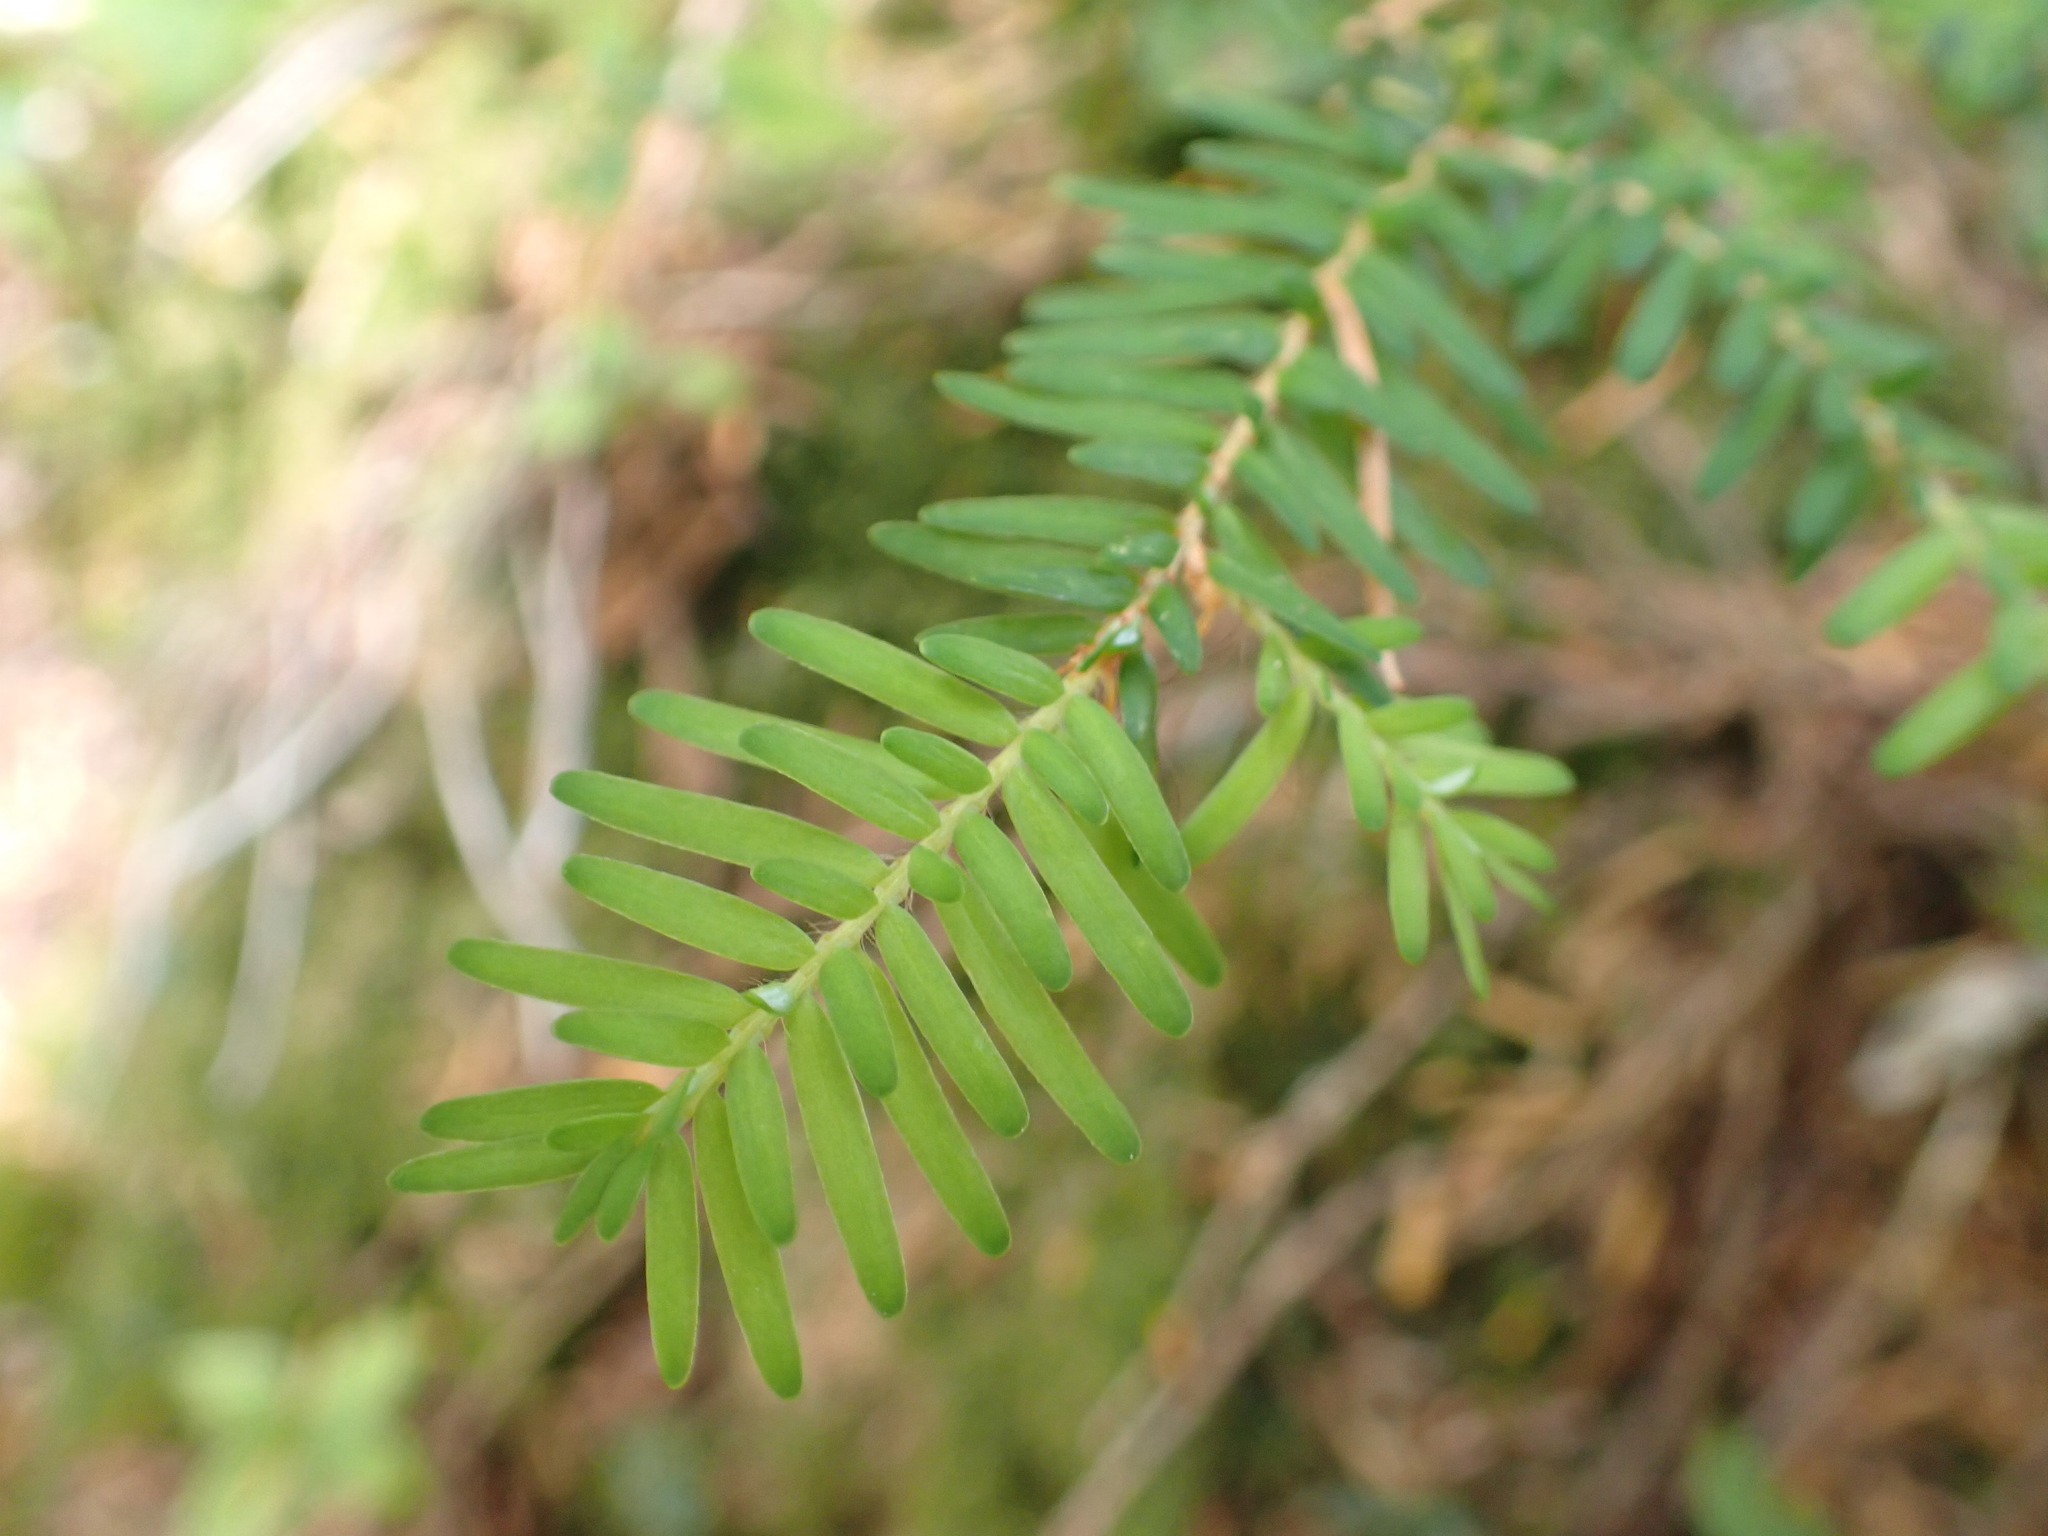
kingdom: Plantae
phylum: Tracheophyta
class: Pinopsida
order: Pinales
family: Pinaceae
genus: Tsuga
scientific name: Tsuga heterophylla
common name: Western hemlock
